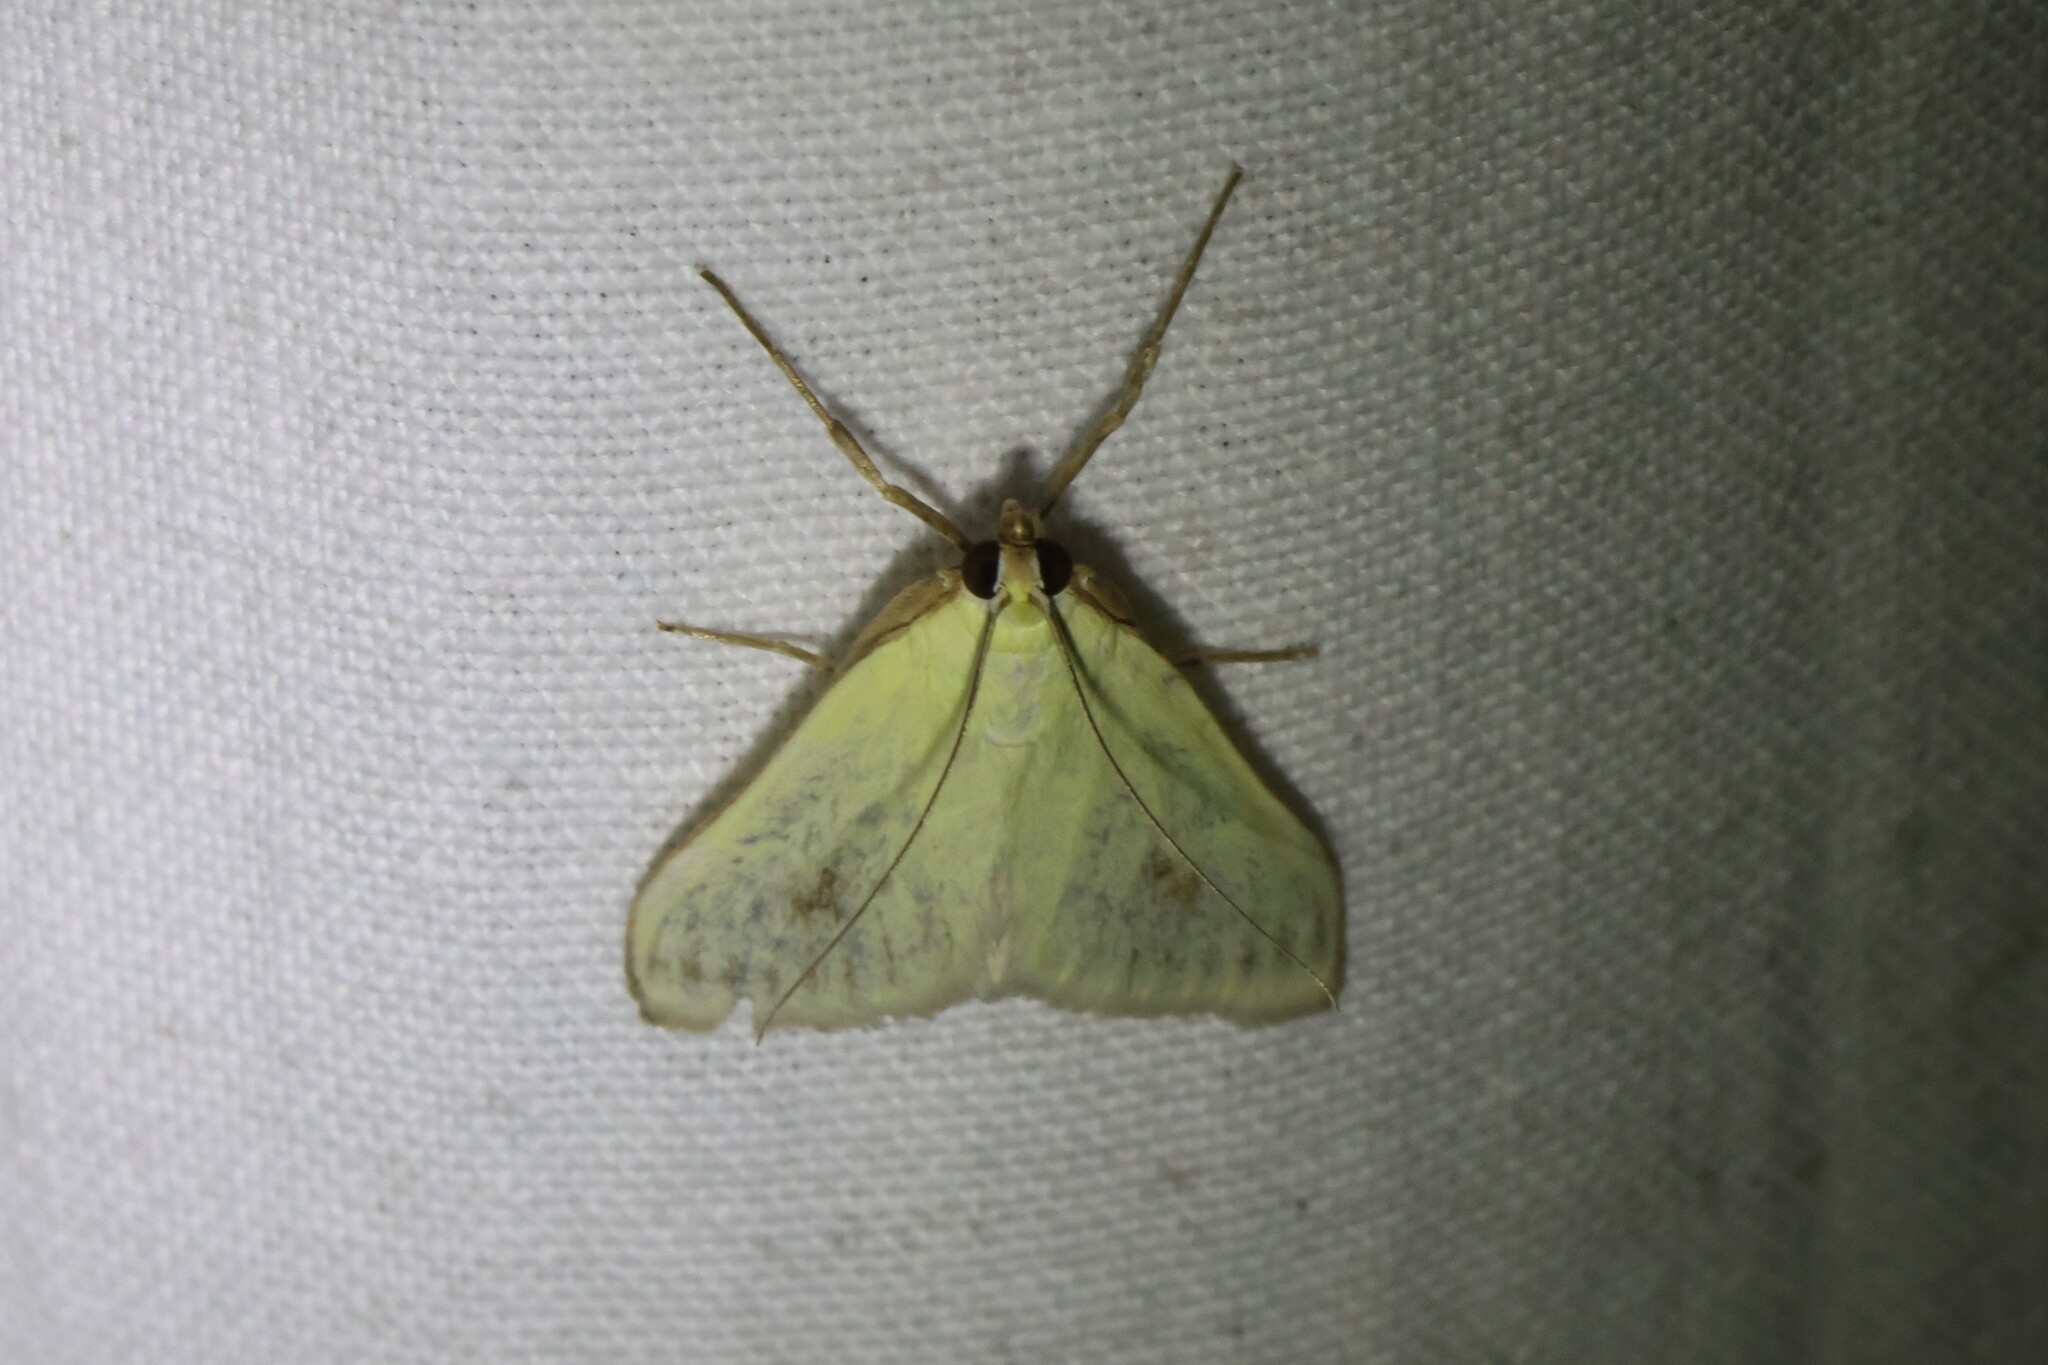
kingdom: Animalia
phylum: Arthropoda
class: Insecta
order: Lepidoptera
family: Crambidae
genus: Sitochroa
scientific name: Sitochroa palealis
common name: Greenish-yellow sitochroa moth
